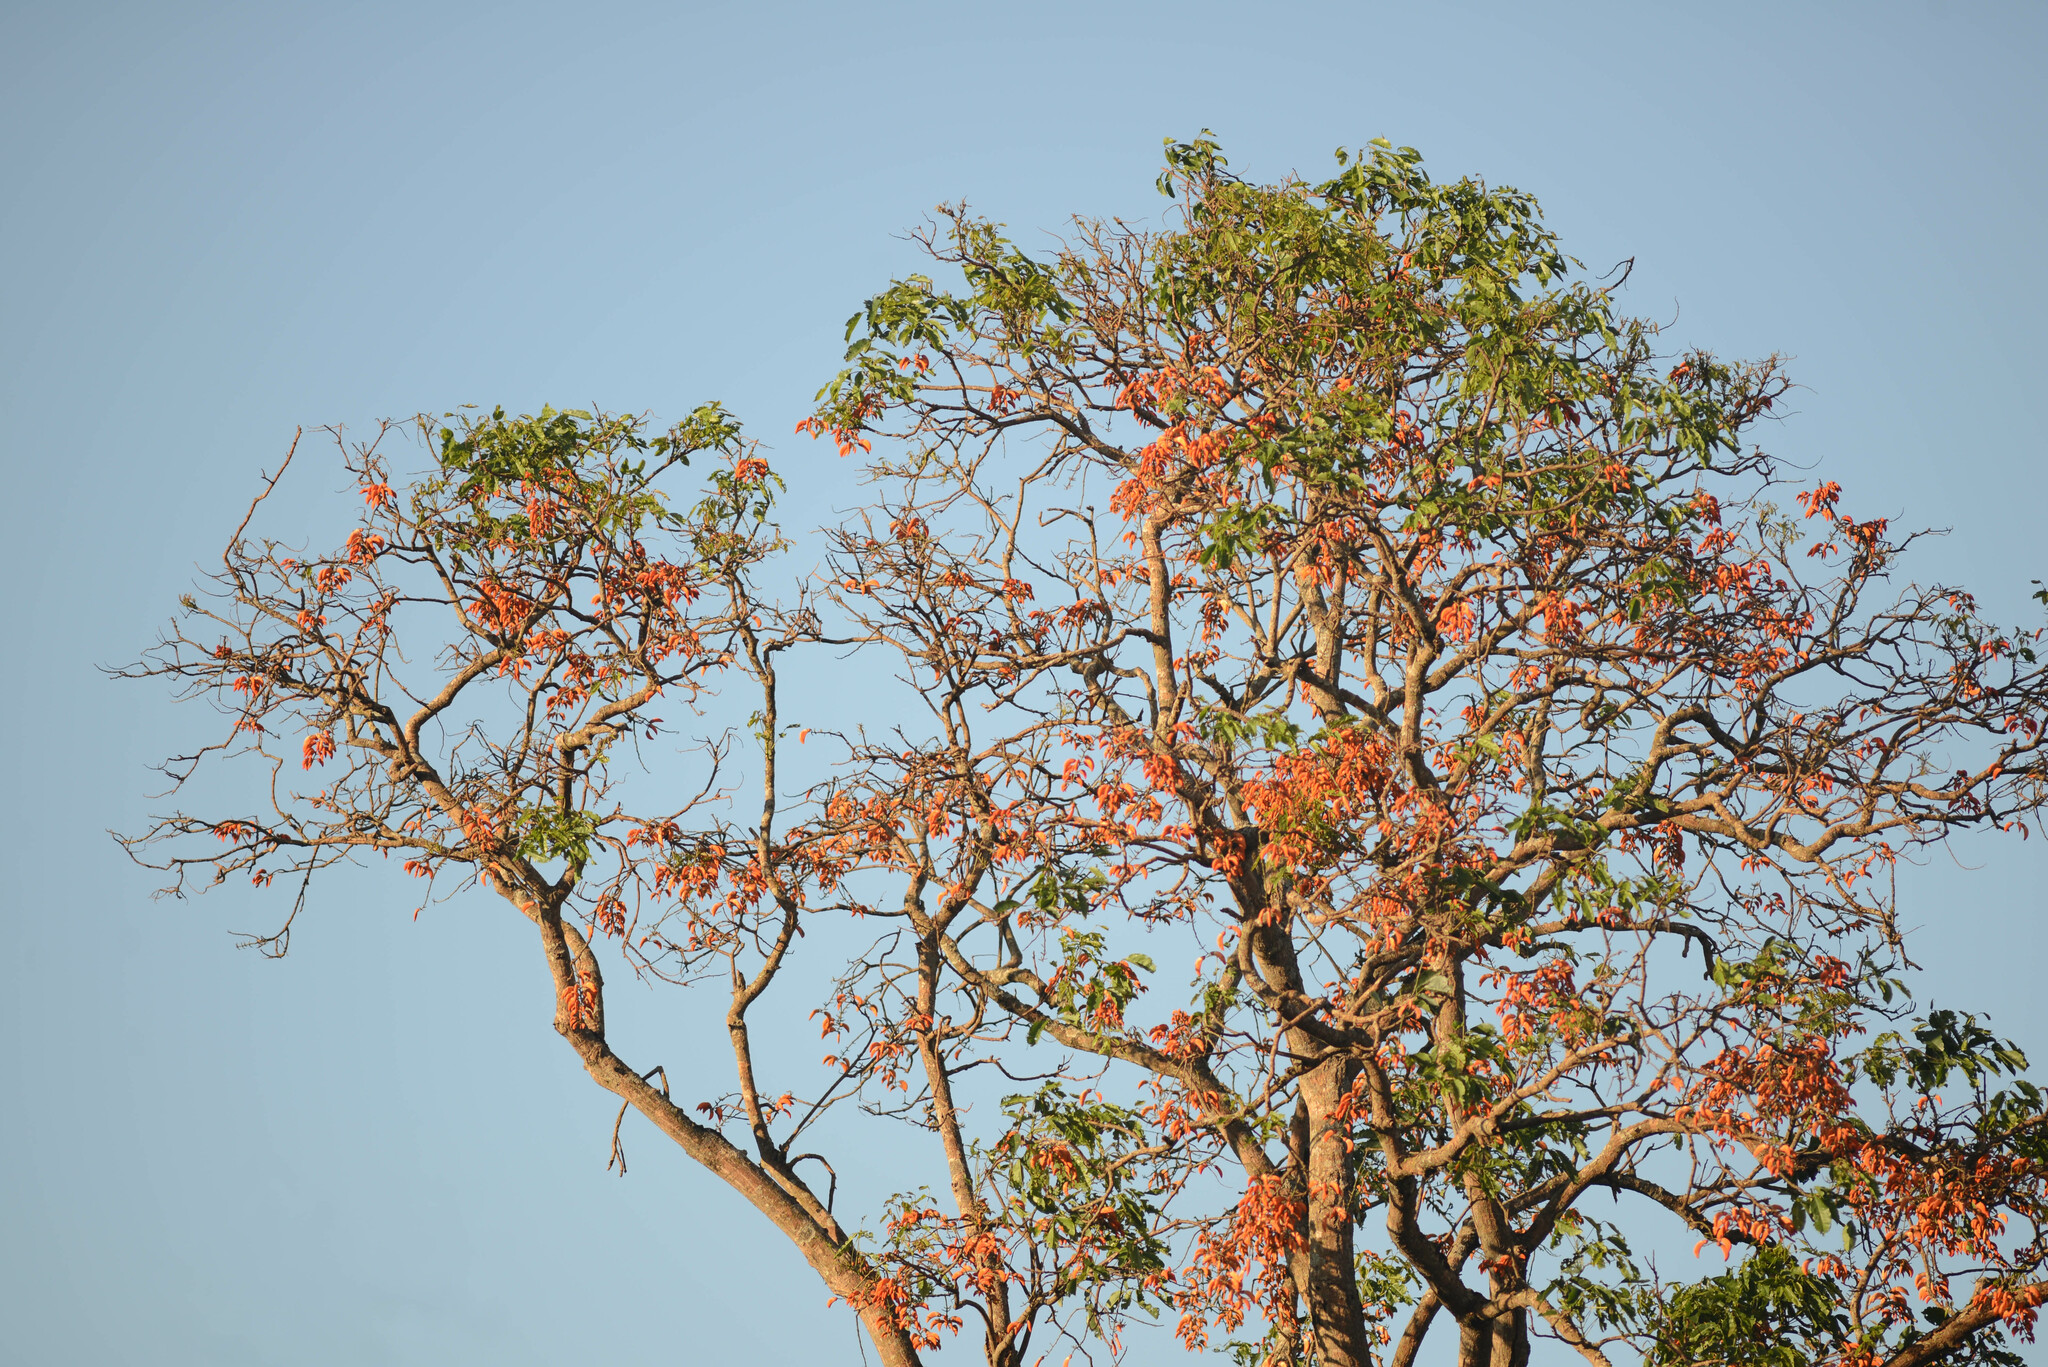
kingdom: Plantae
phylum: Tracheophyta
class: Magnoliopsida
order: Fabales
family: Fabaceae
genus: Erythrina
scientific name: Erythrina falcata
